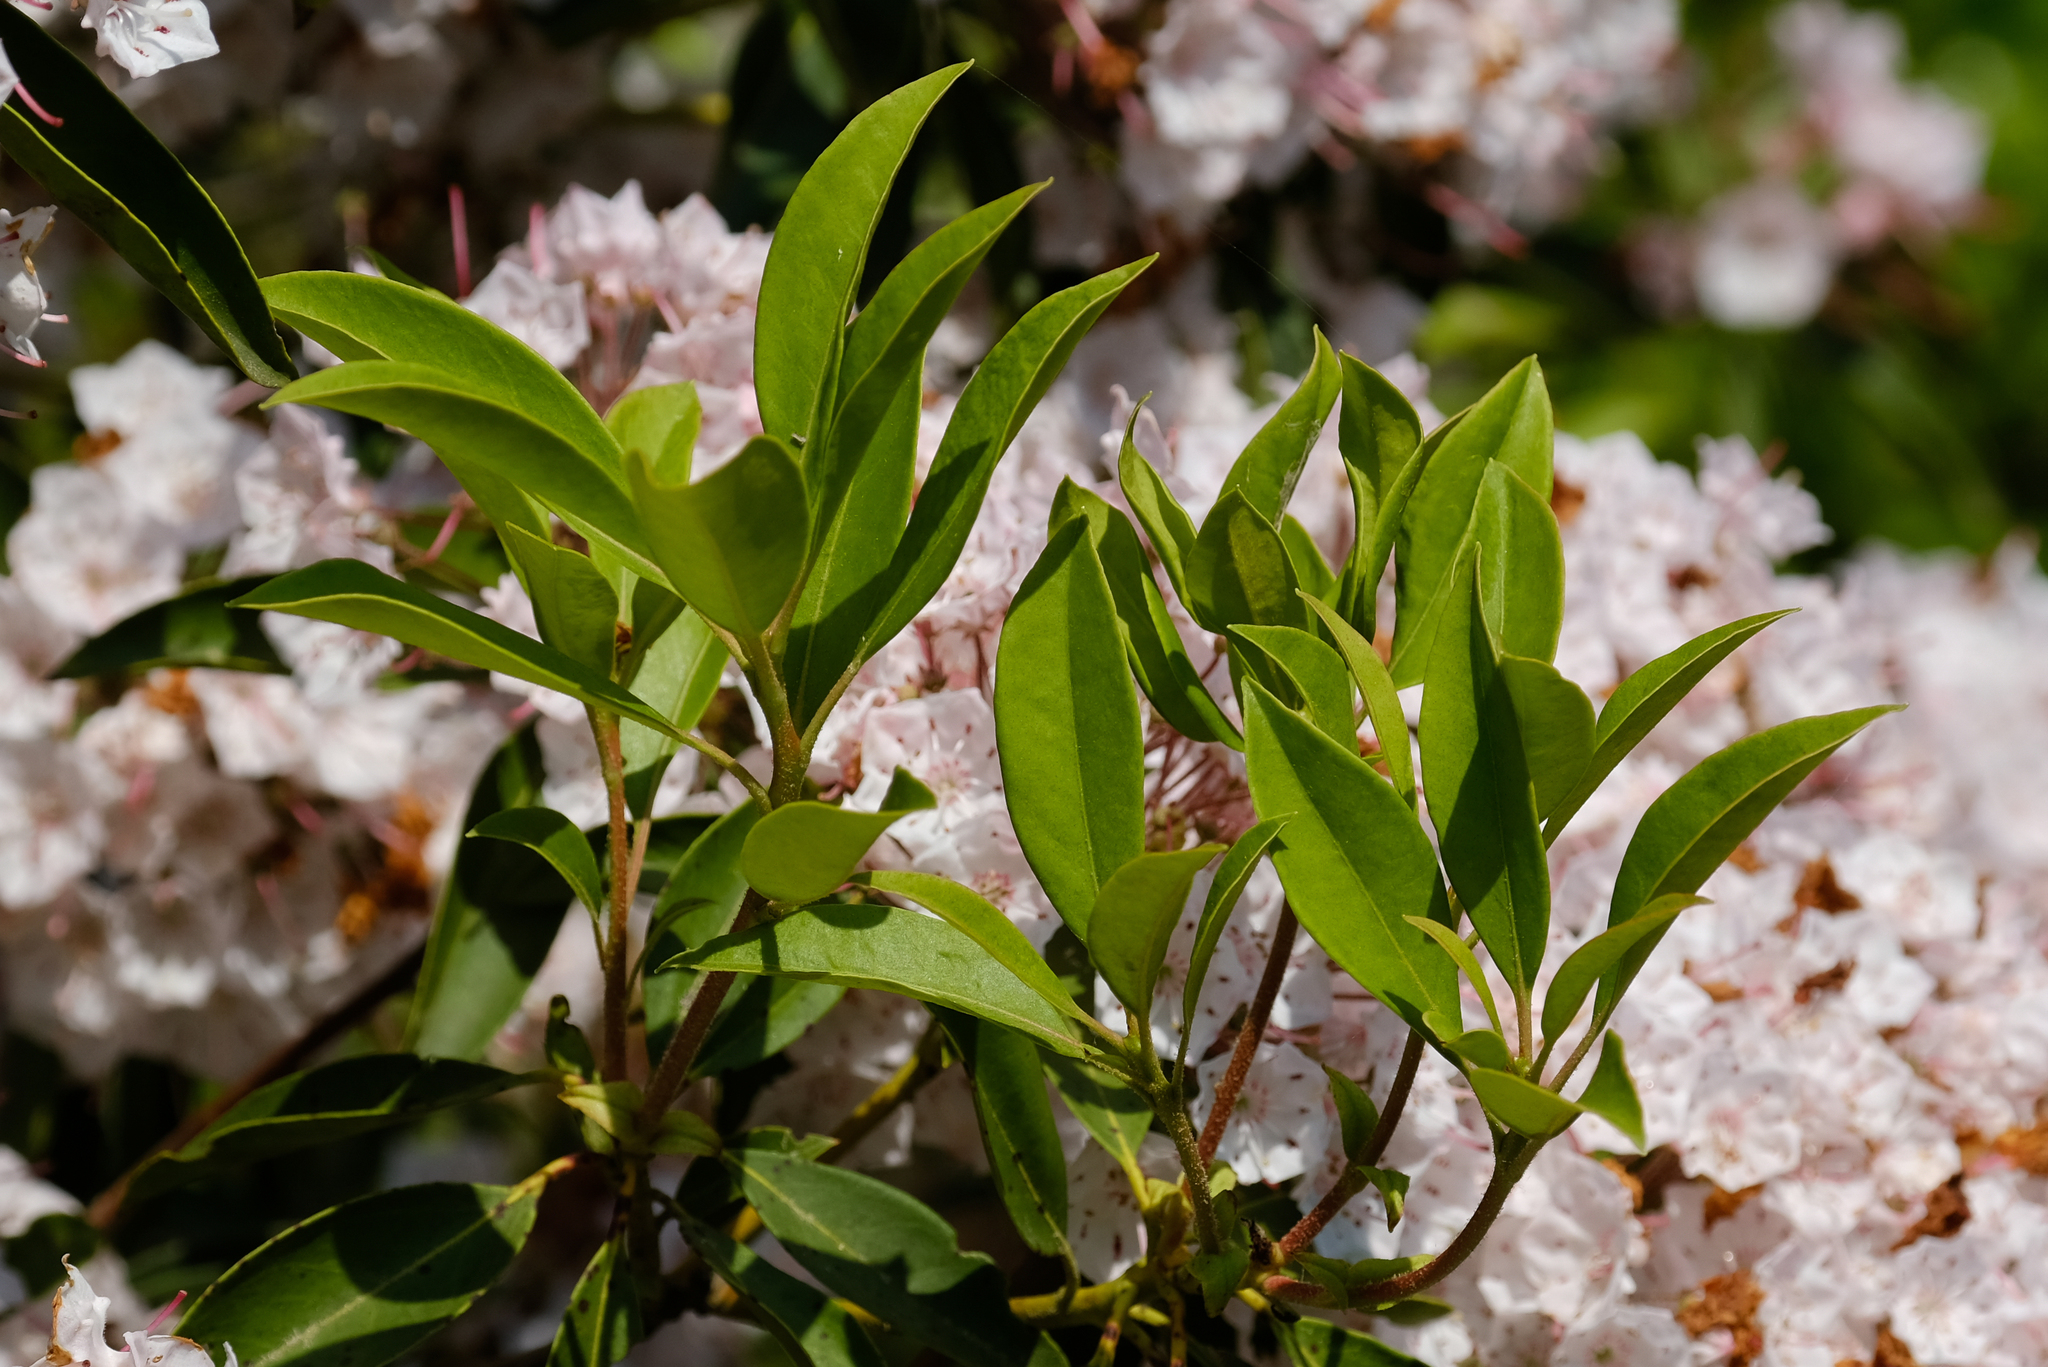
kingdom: Plantae
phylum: Tracheophyta
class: Magnoliopsida
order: Ericales
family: Ericaceae
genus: Kalmia
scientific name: Kalmia latifolia
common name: Mountain-laurel
